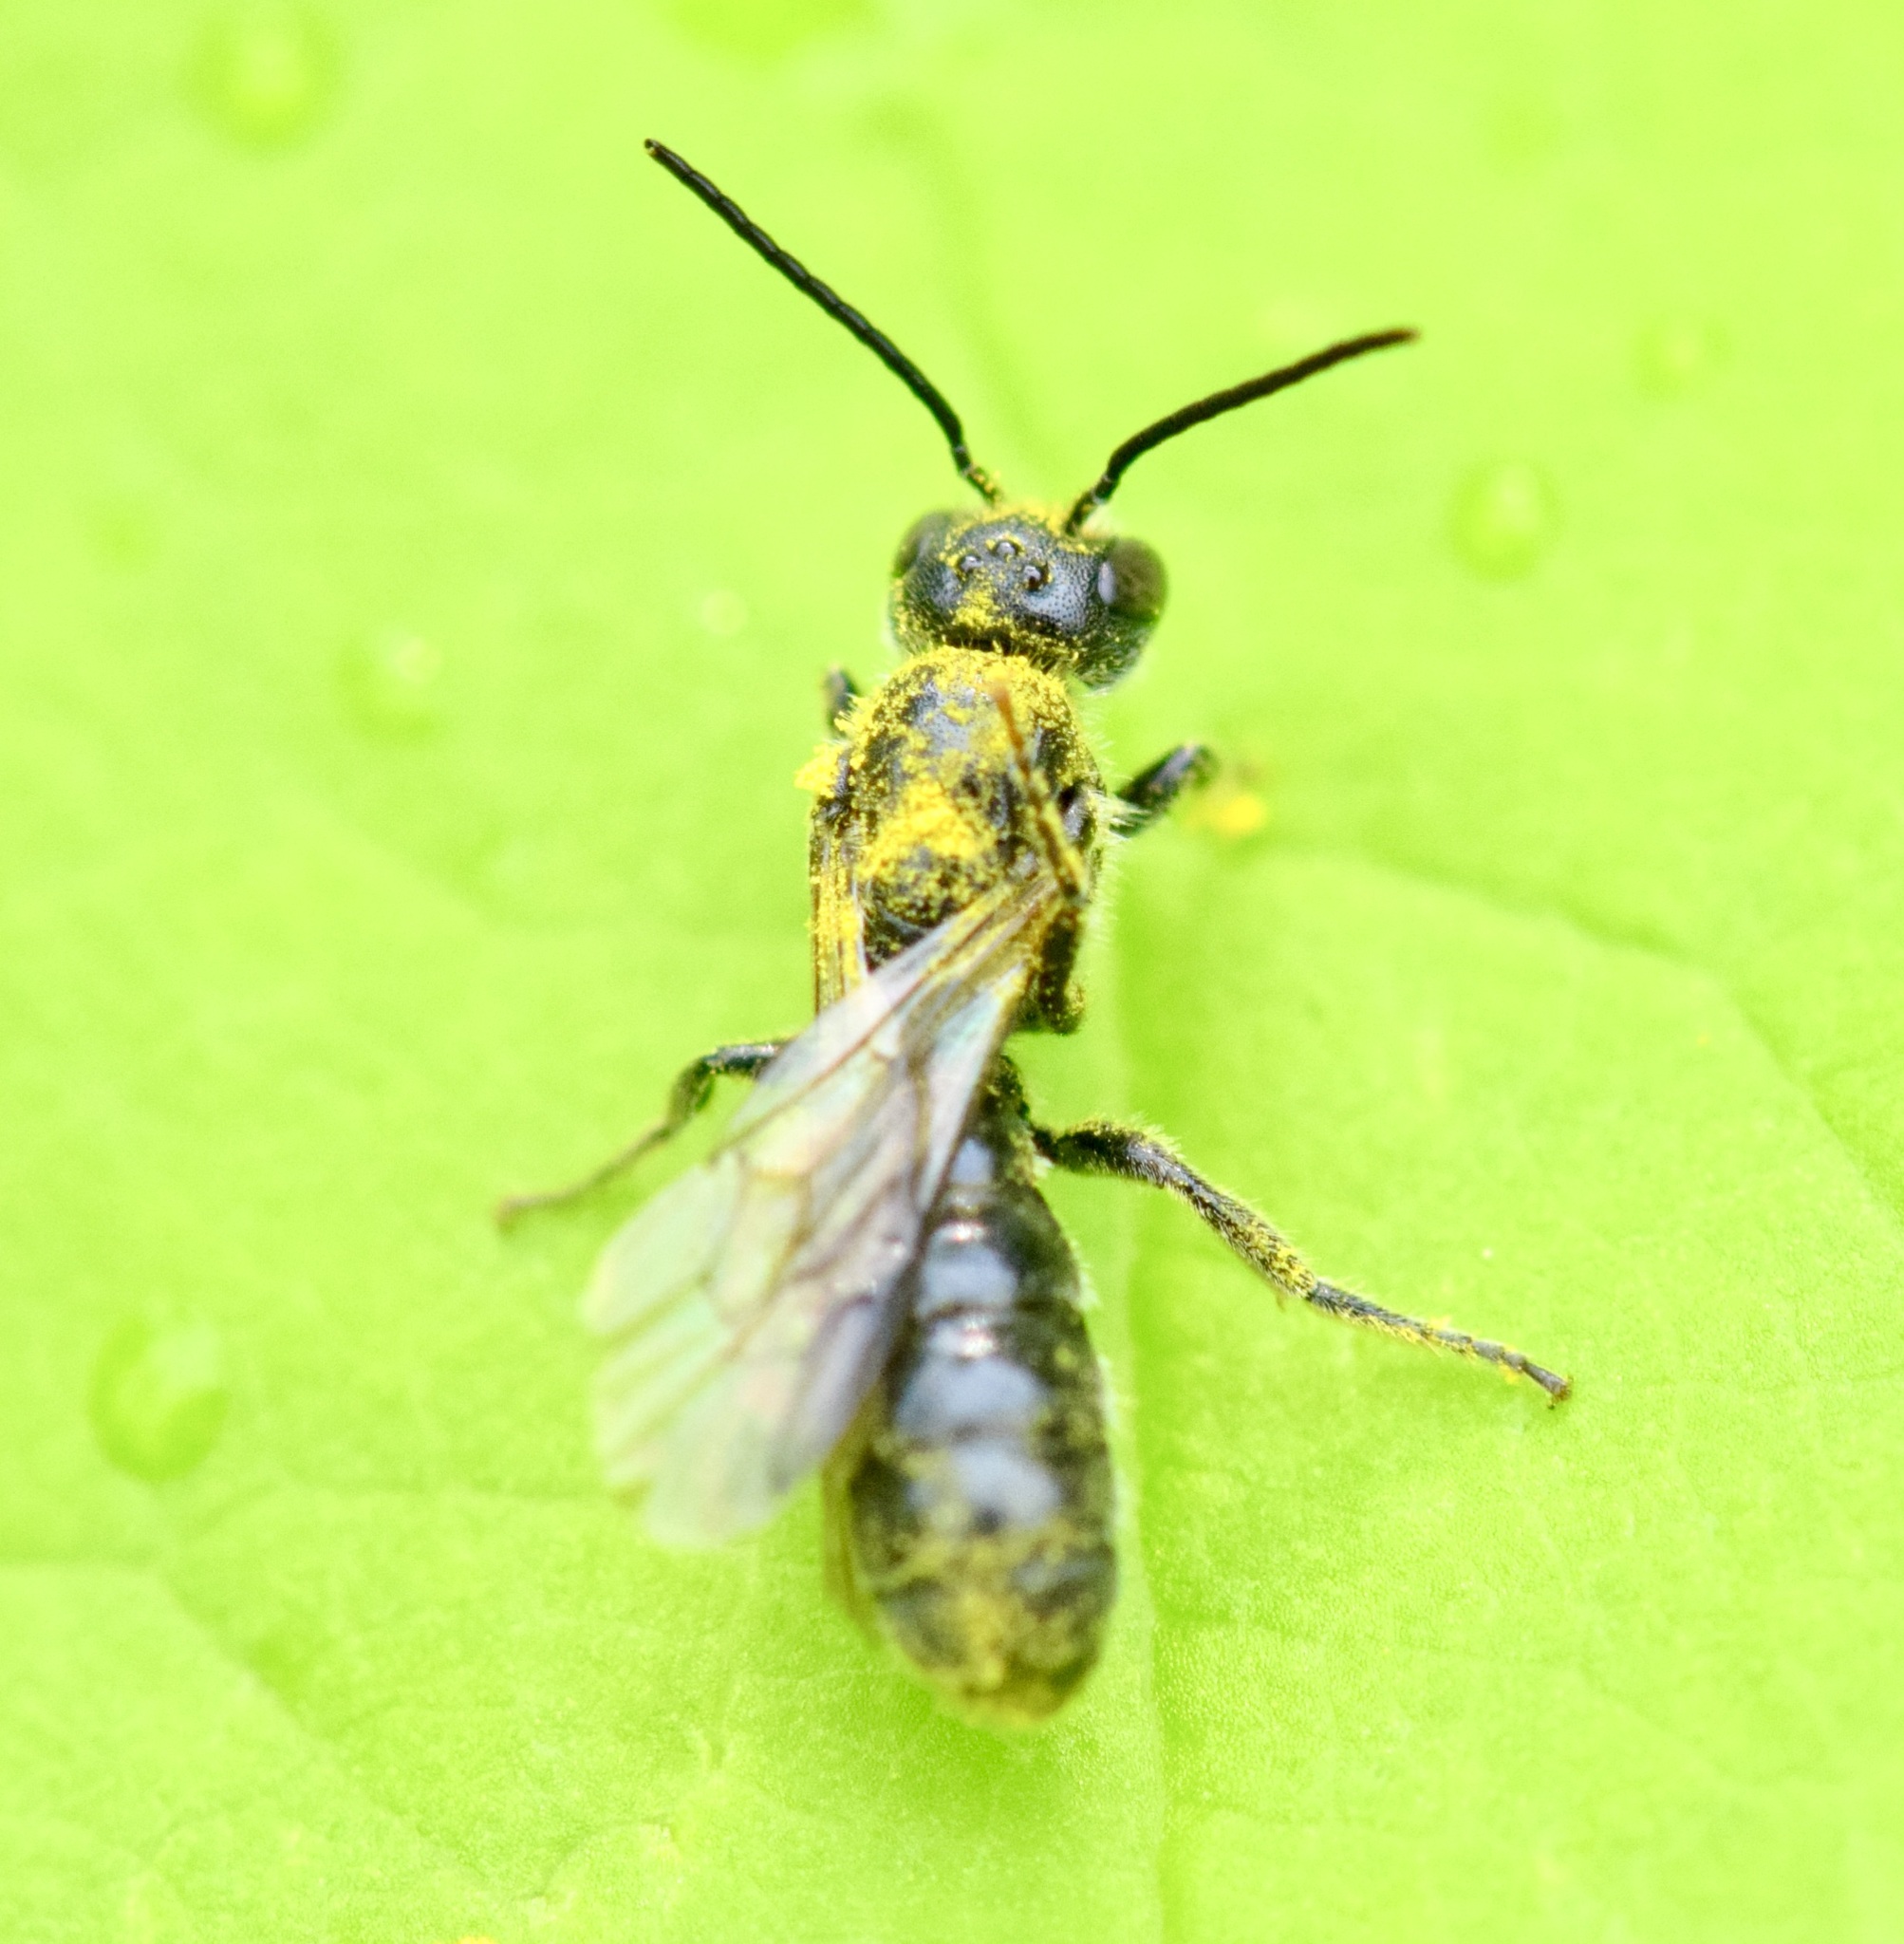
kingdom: Animalia
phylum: Arthropoda
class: Insecta
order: Hymenoptera
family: Megachilidae
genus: Chelostoma
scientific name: Chelostoma philadelphi
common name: Mock-orange scissor bee
